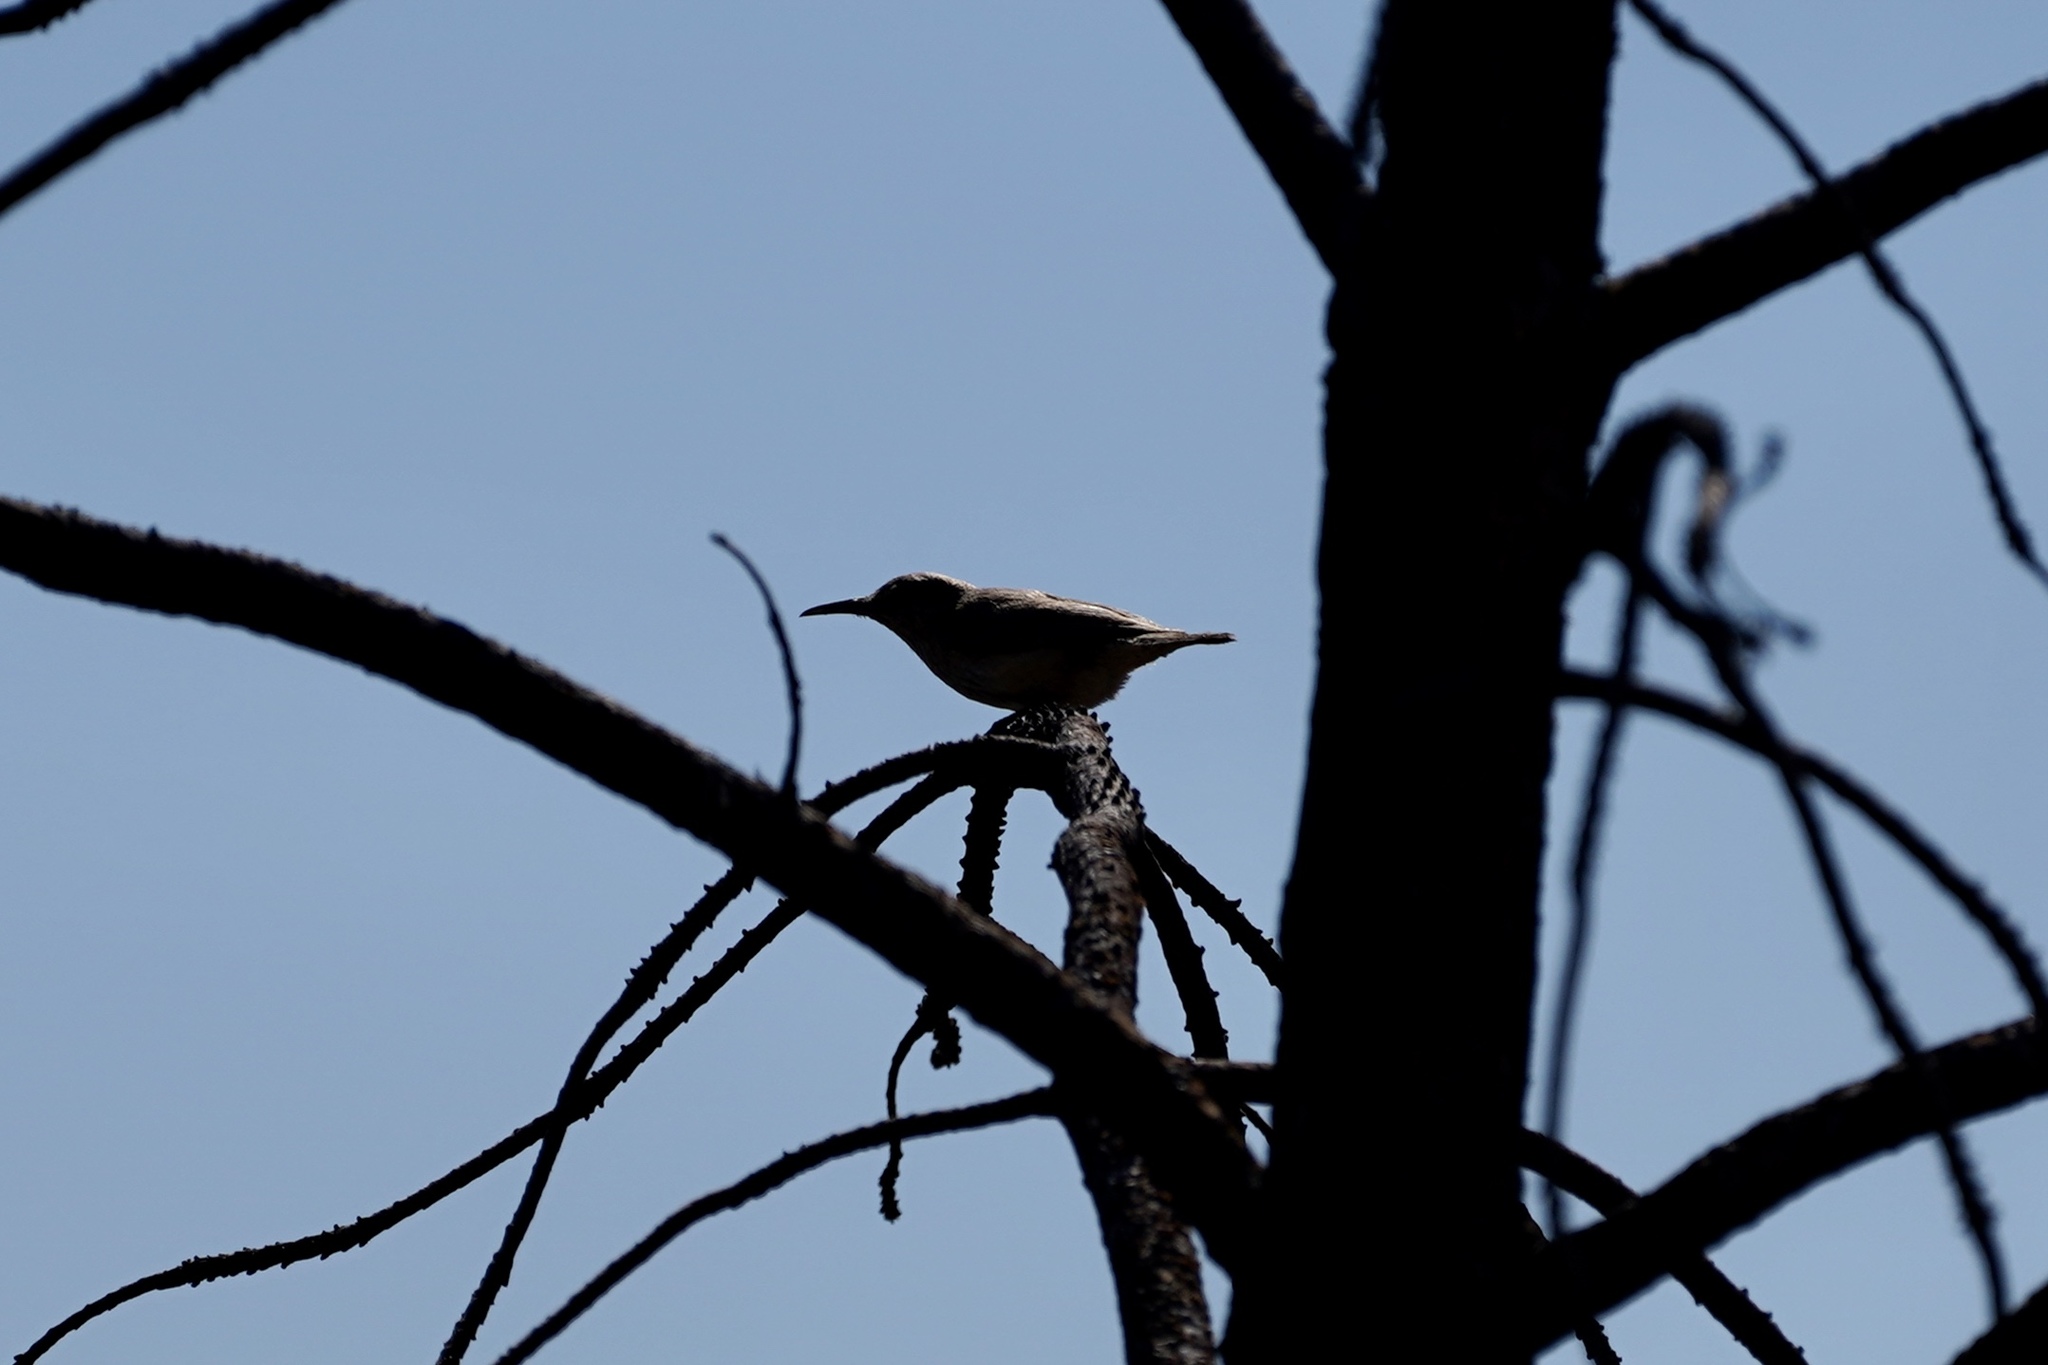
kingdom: Animalia
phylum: Chordata
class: Aves
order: Passeriformes
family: Troglodytidae
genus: Salpinctes
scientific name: Salpinctes obsoletus
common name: Rock wren
